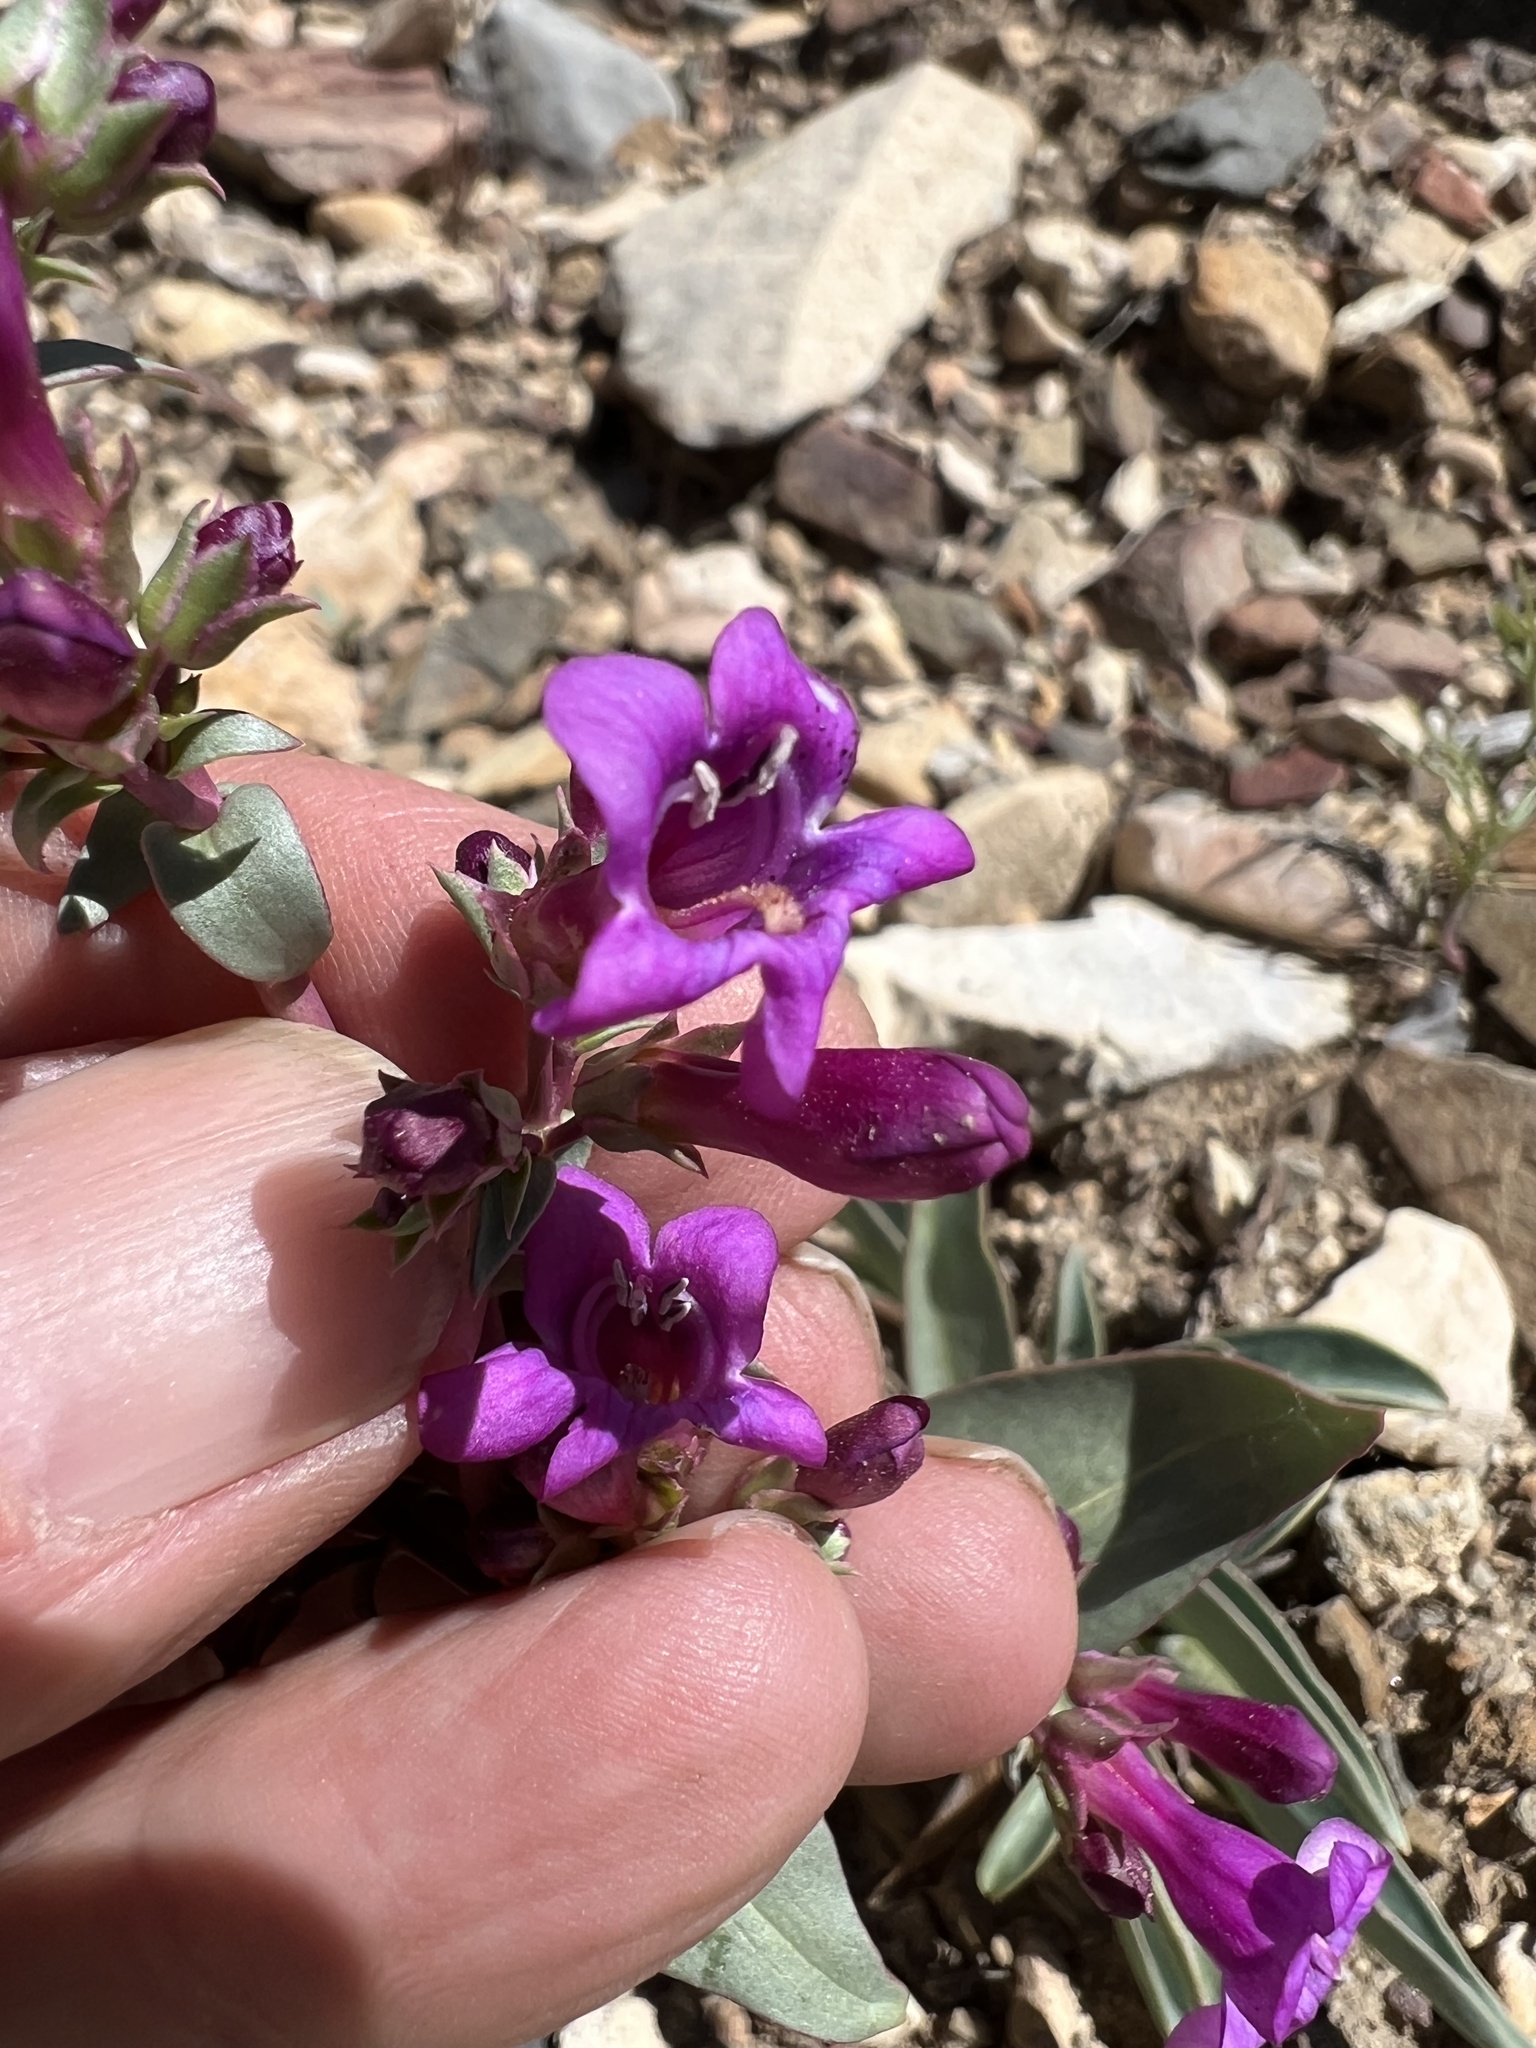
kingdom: Plantae
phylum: Tracheophyta
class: Magnoliopsida
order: Lamiales
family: Plantaginaceae
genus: Penstemon
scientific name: Penstemon patens
